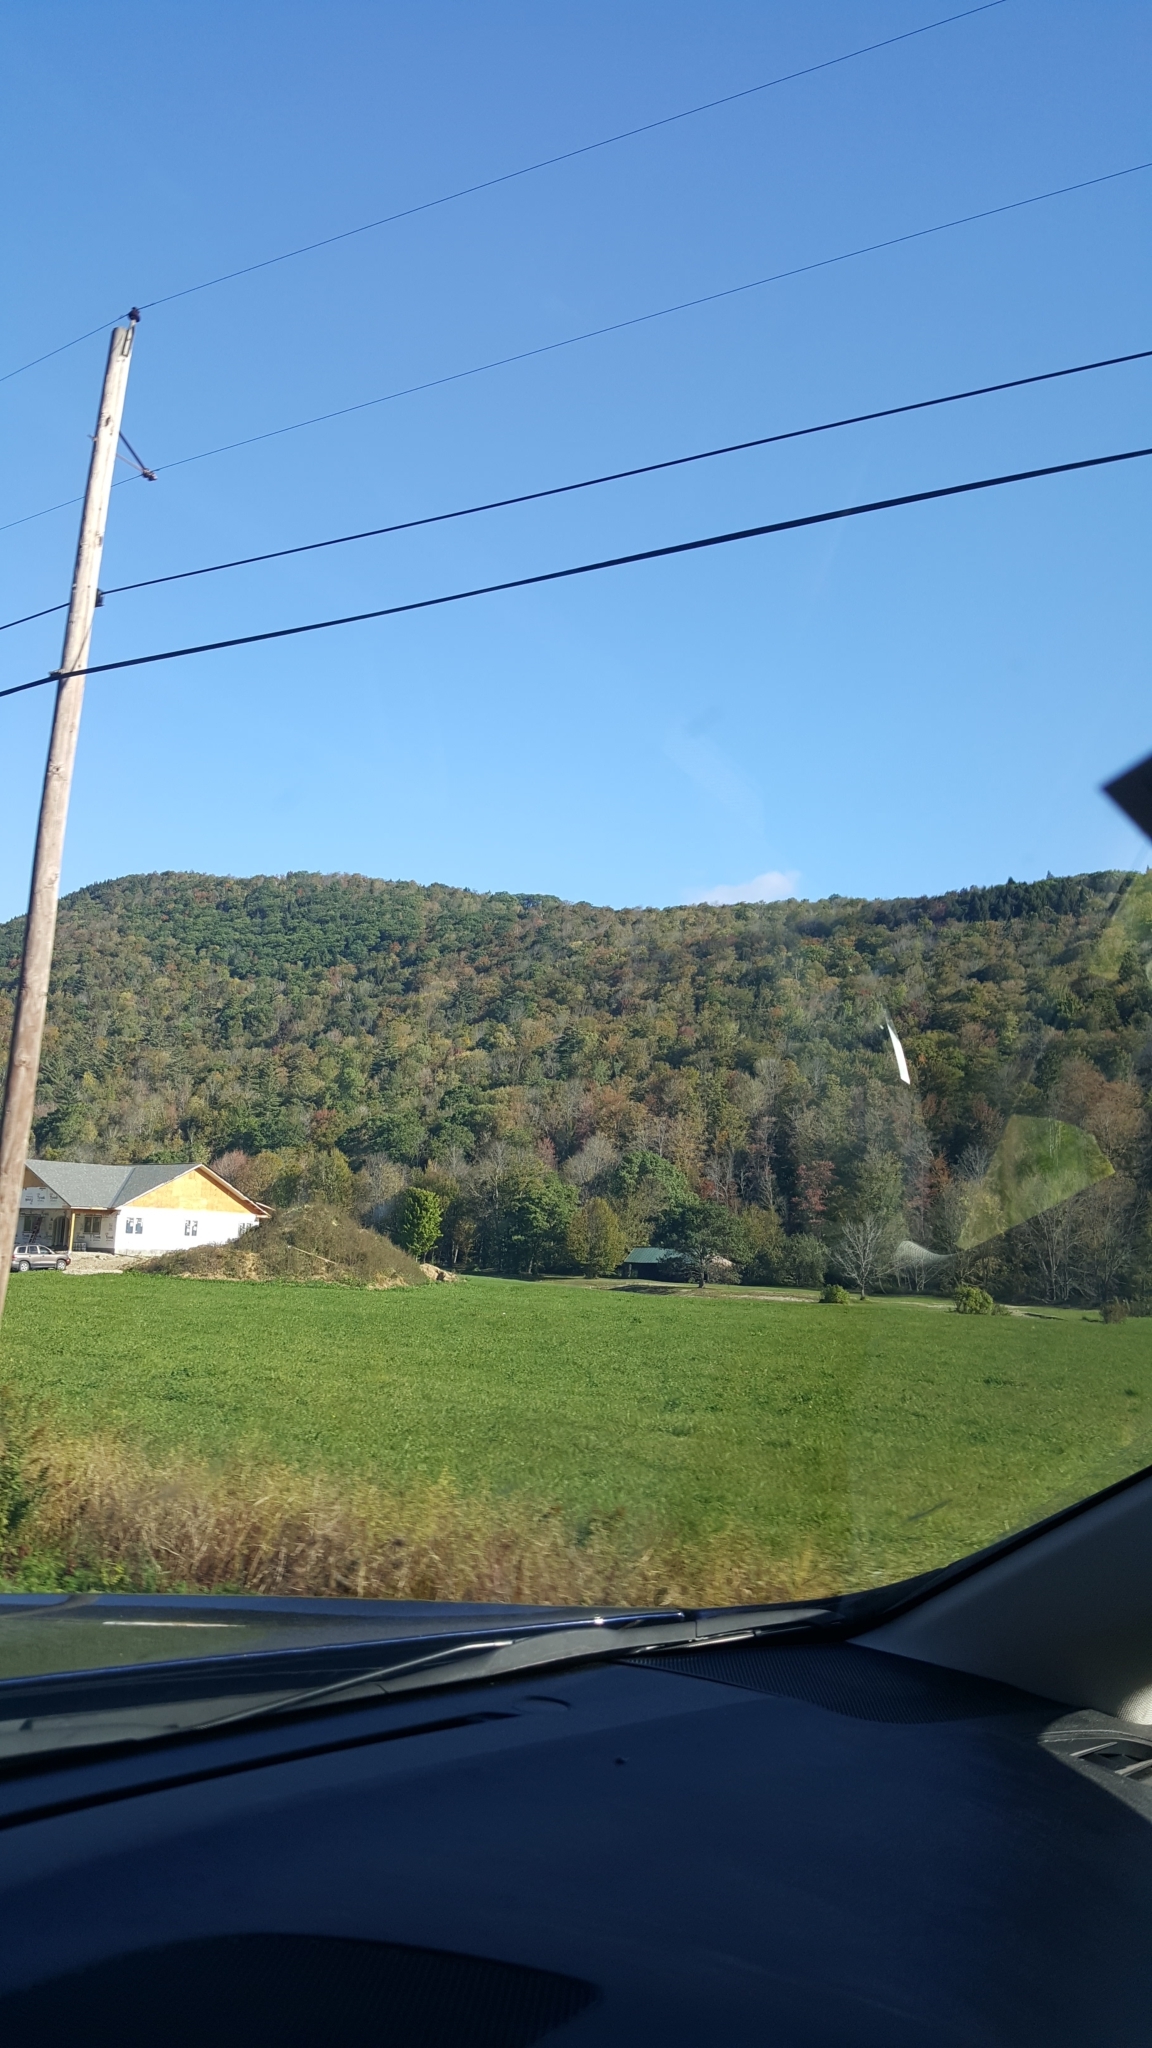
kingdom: Plantae
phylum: Tracheophyta
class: Magnoliopsida
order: Fagales
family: Fagaceae
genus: Quercus
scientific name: Quercus rubra
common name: Red oak
